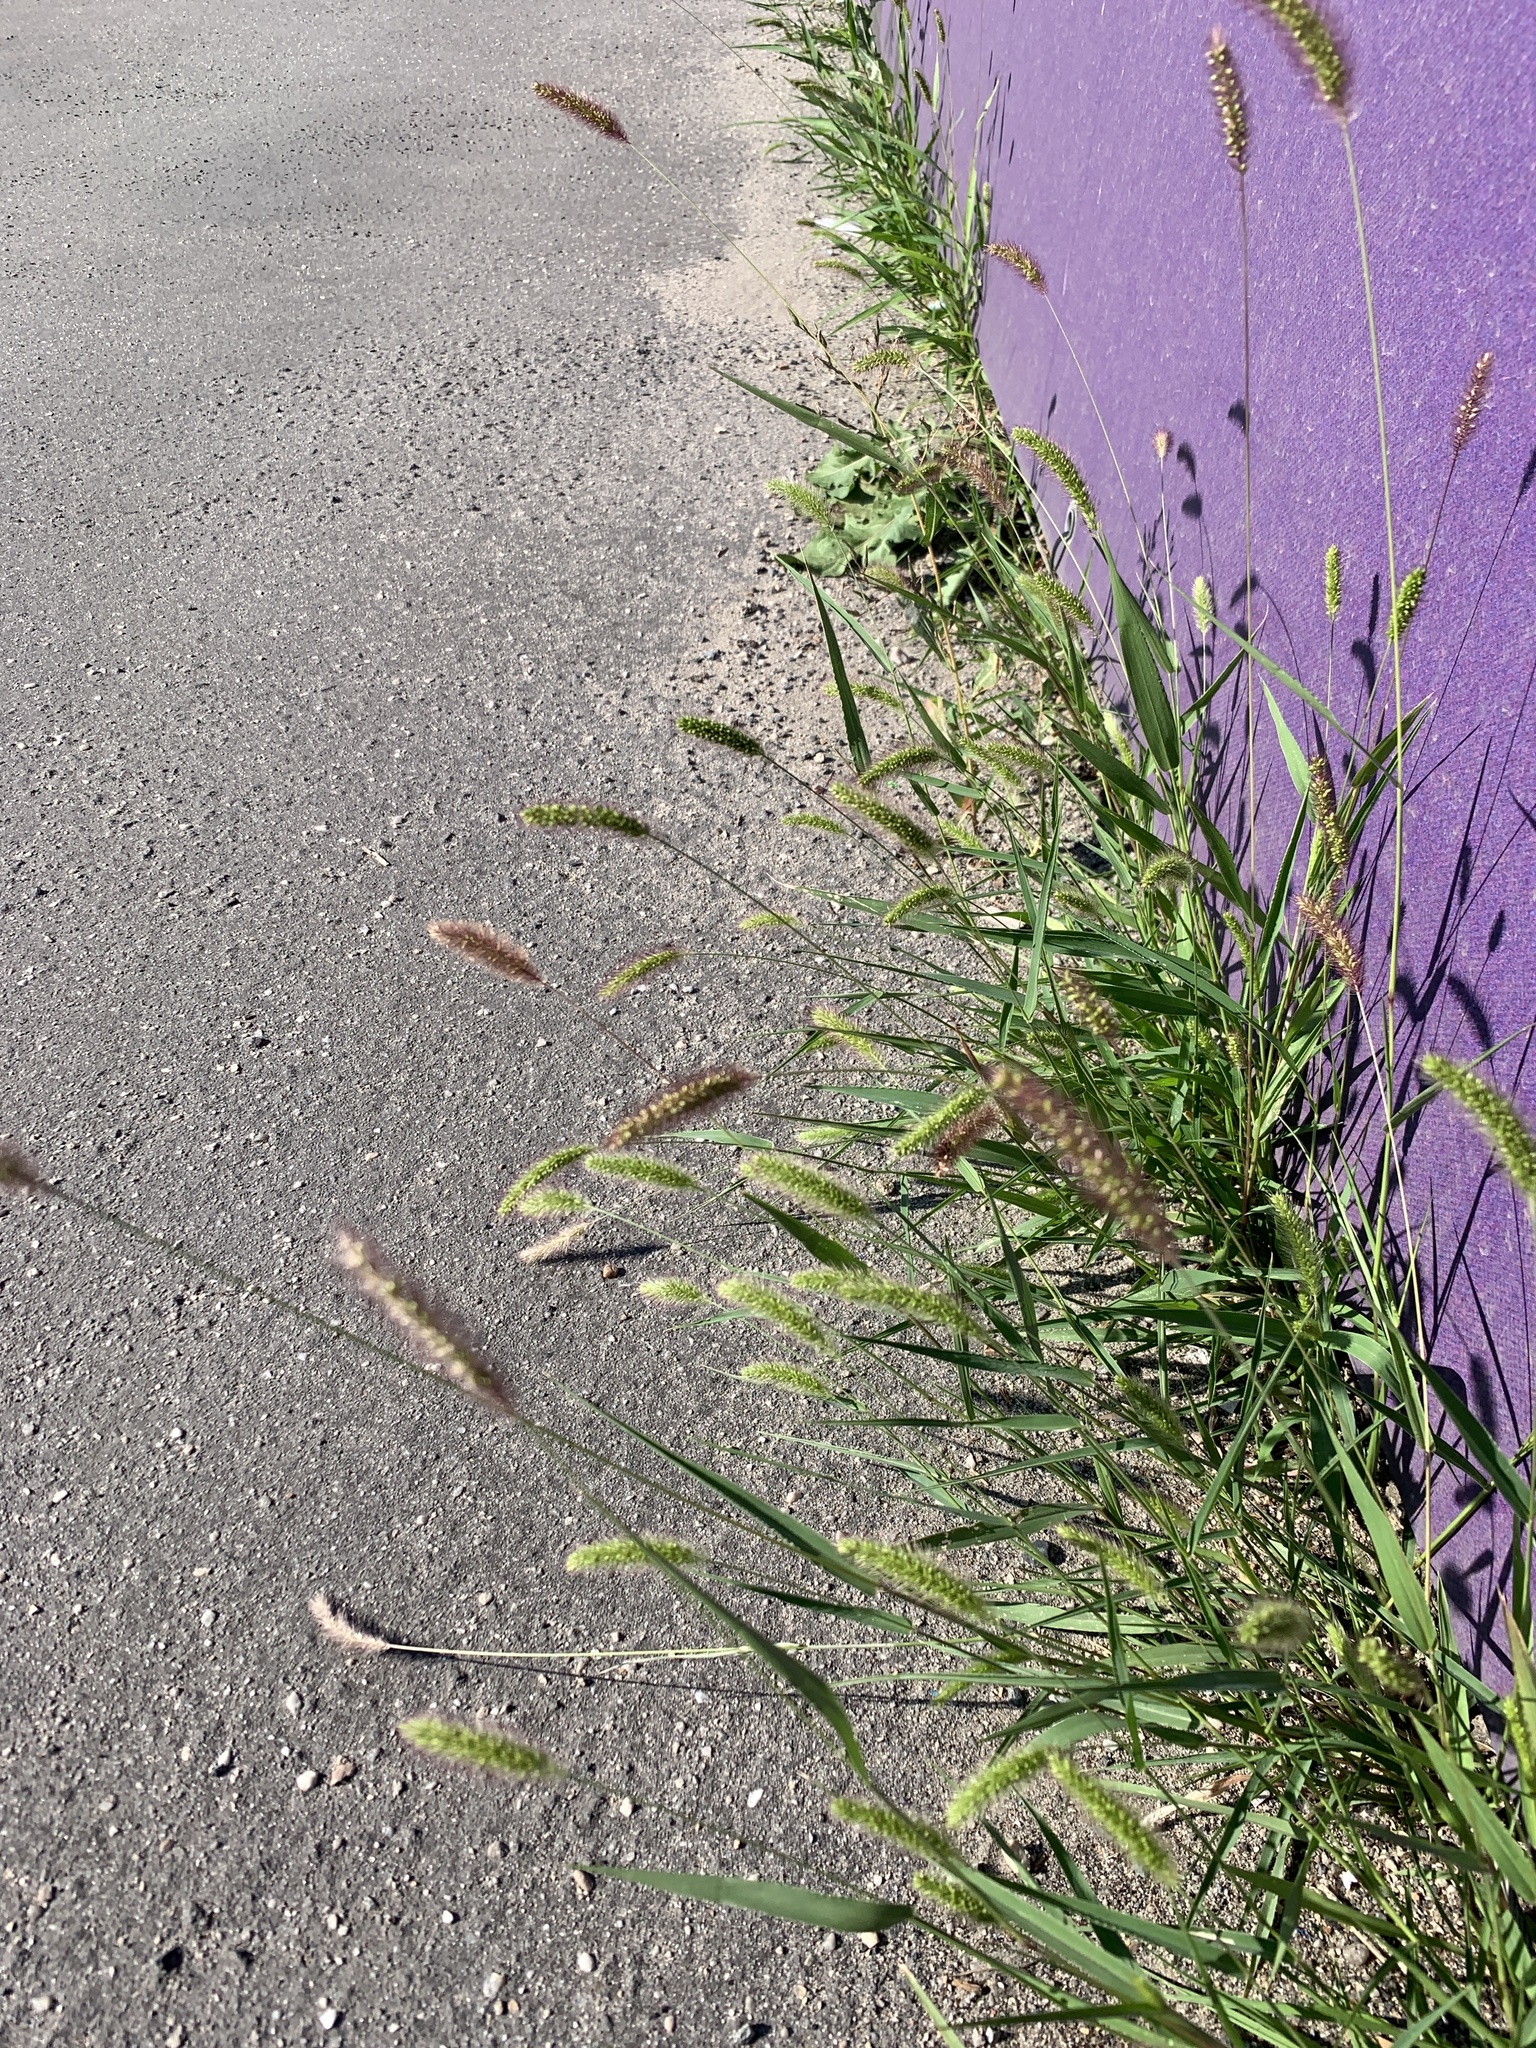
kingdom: Plantae
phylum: Tracheophyta
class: Liliopsida
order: Poales
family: Poaceae
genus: Setaria
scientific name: Setaria viridis
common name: Green bristlegrass
